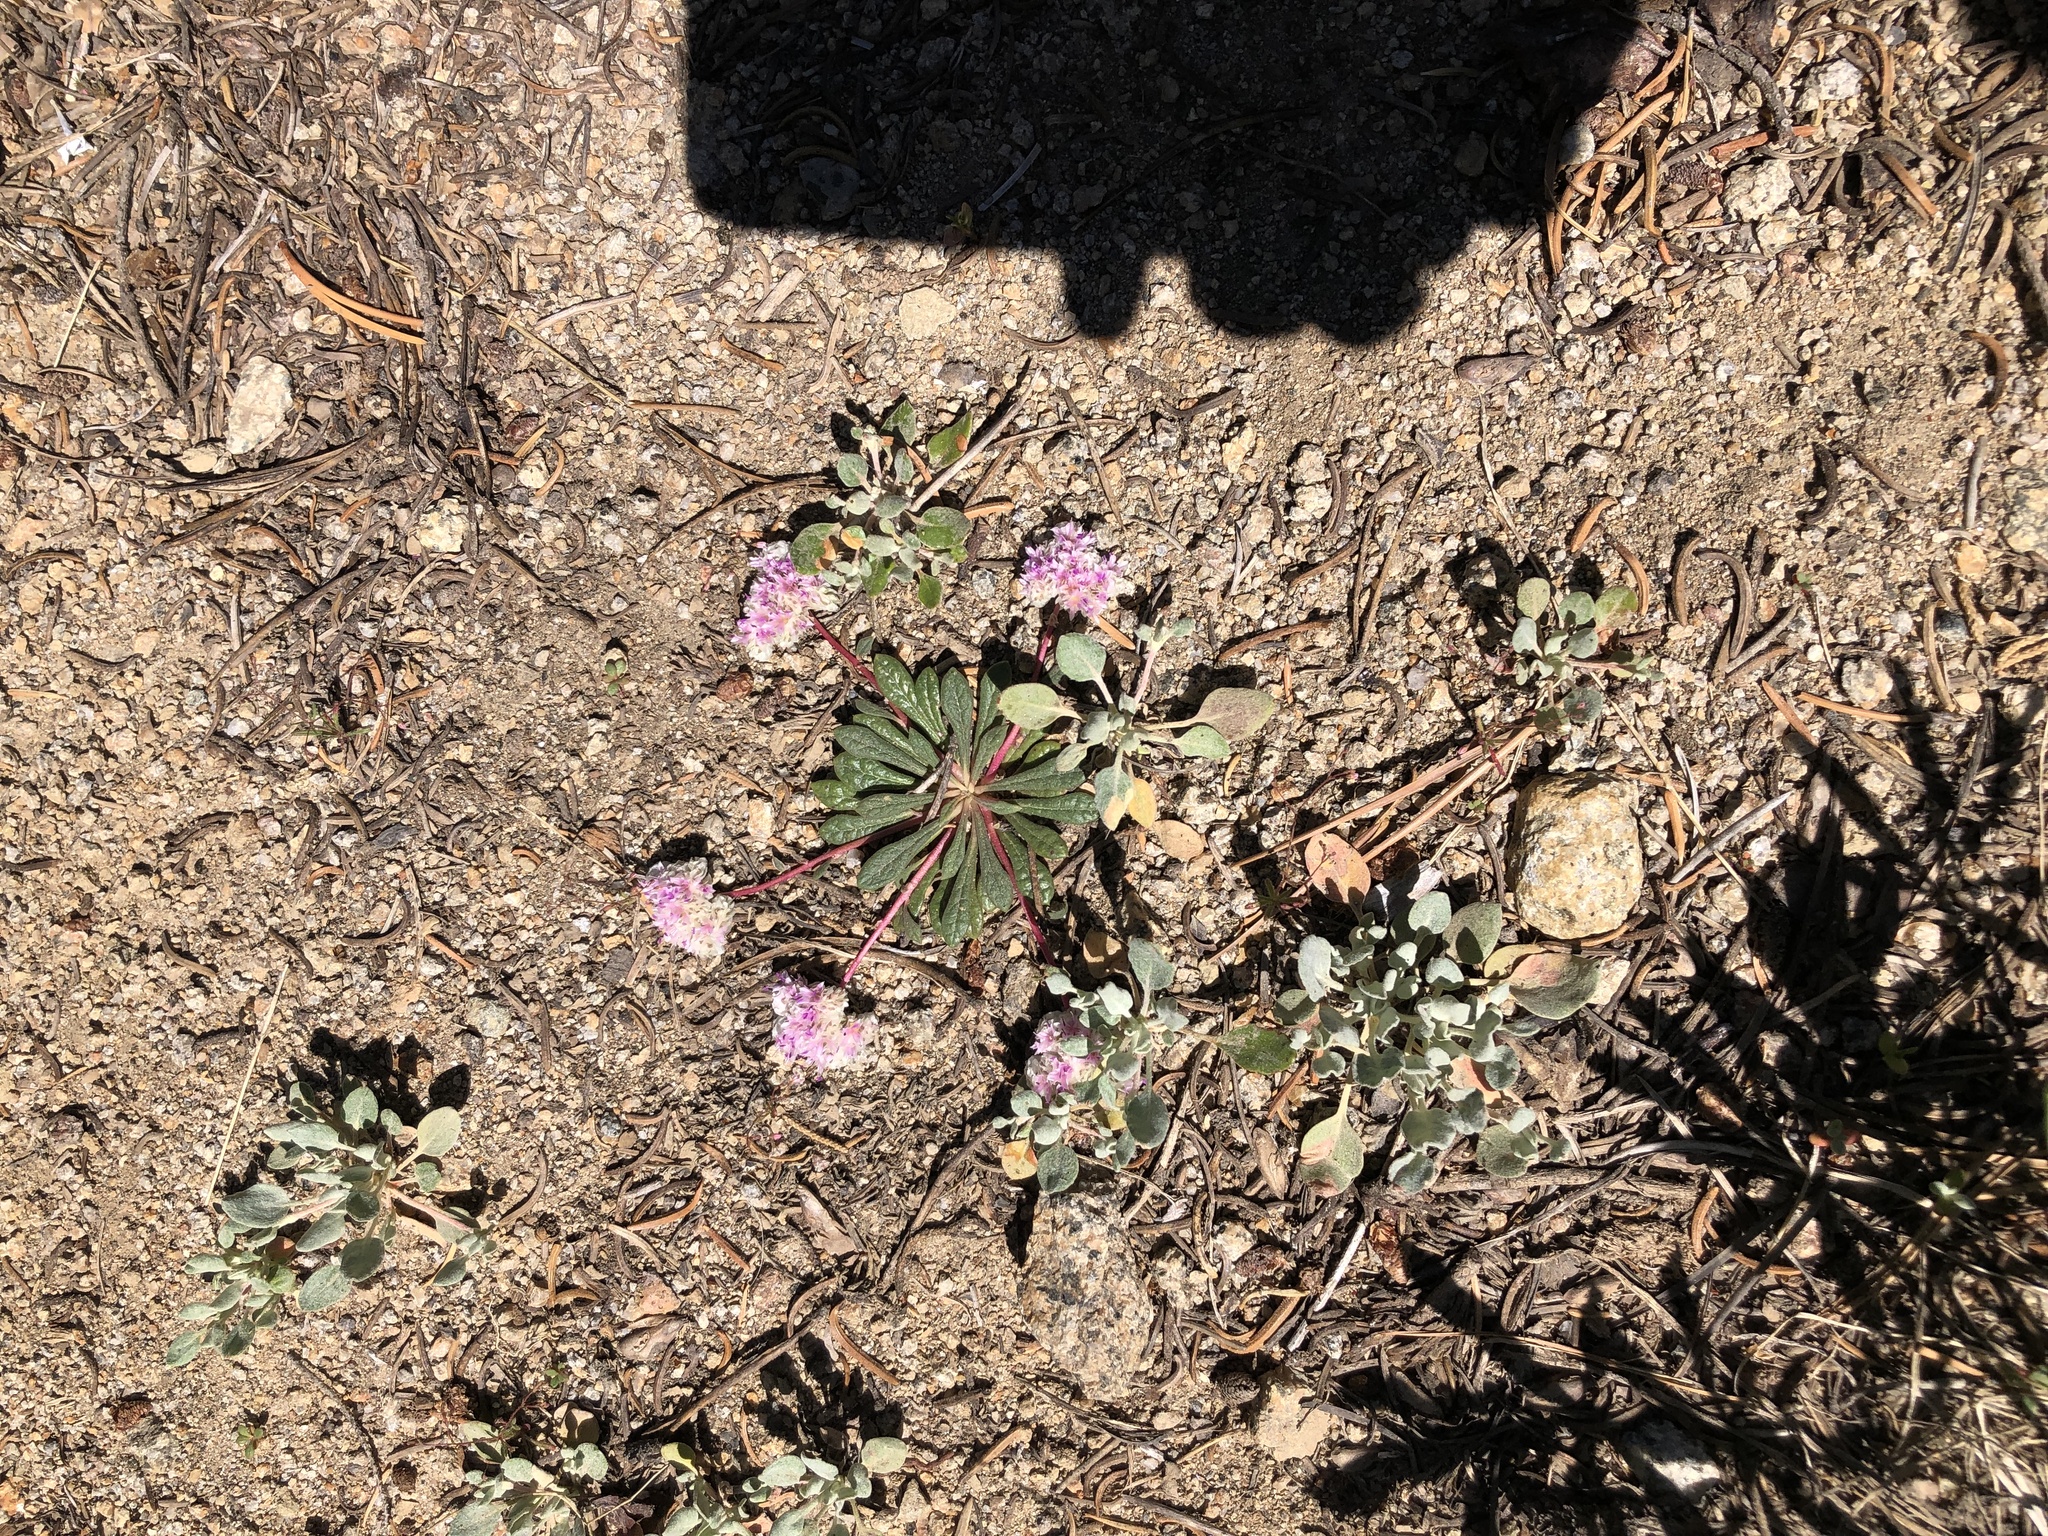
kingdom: Plantae
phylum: Tracheophyta
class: Magnoliopsida
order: Caryophyllales
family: Montiaceae
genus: Calyptridium
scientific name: Calyptridium monospermum
